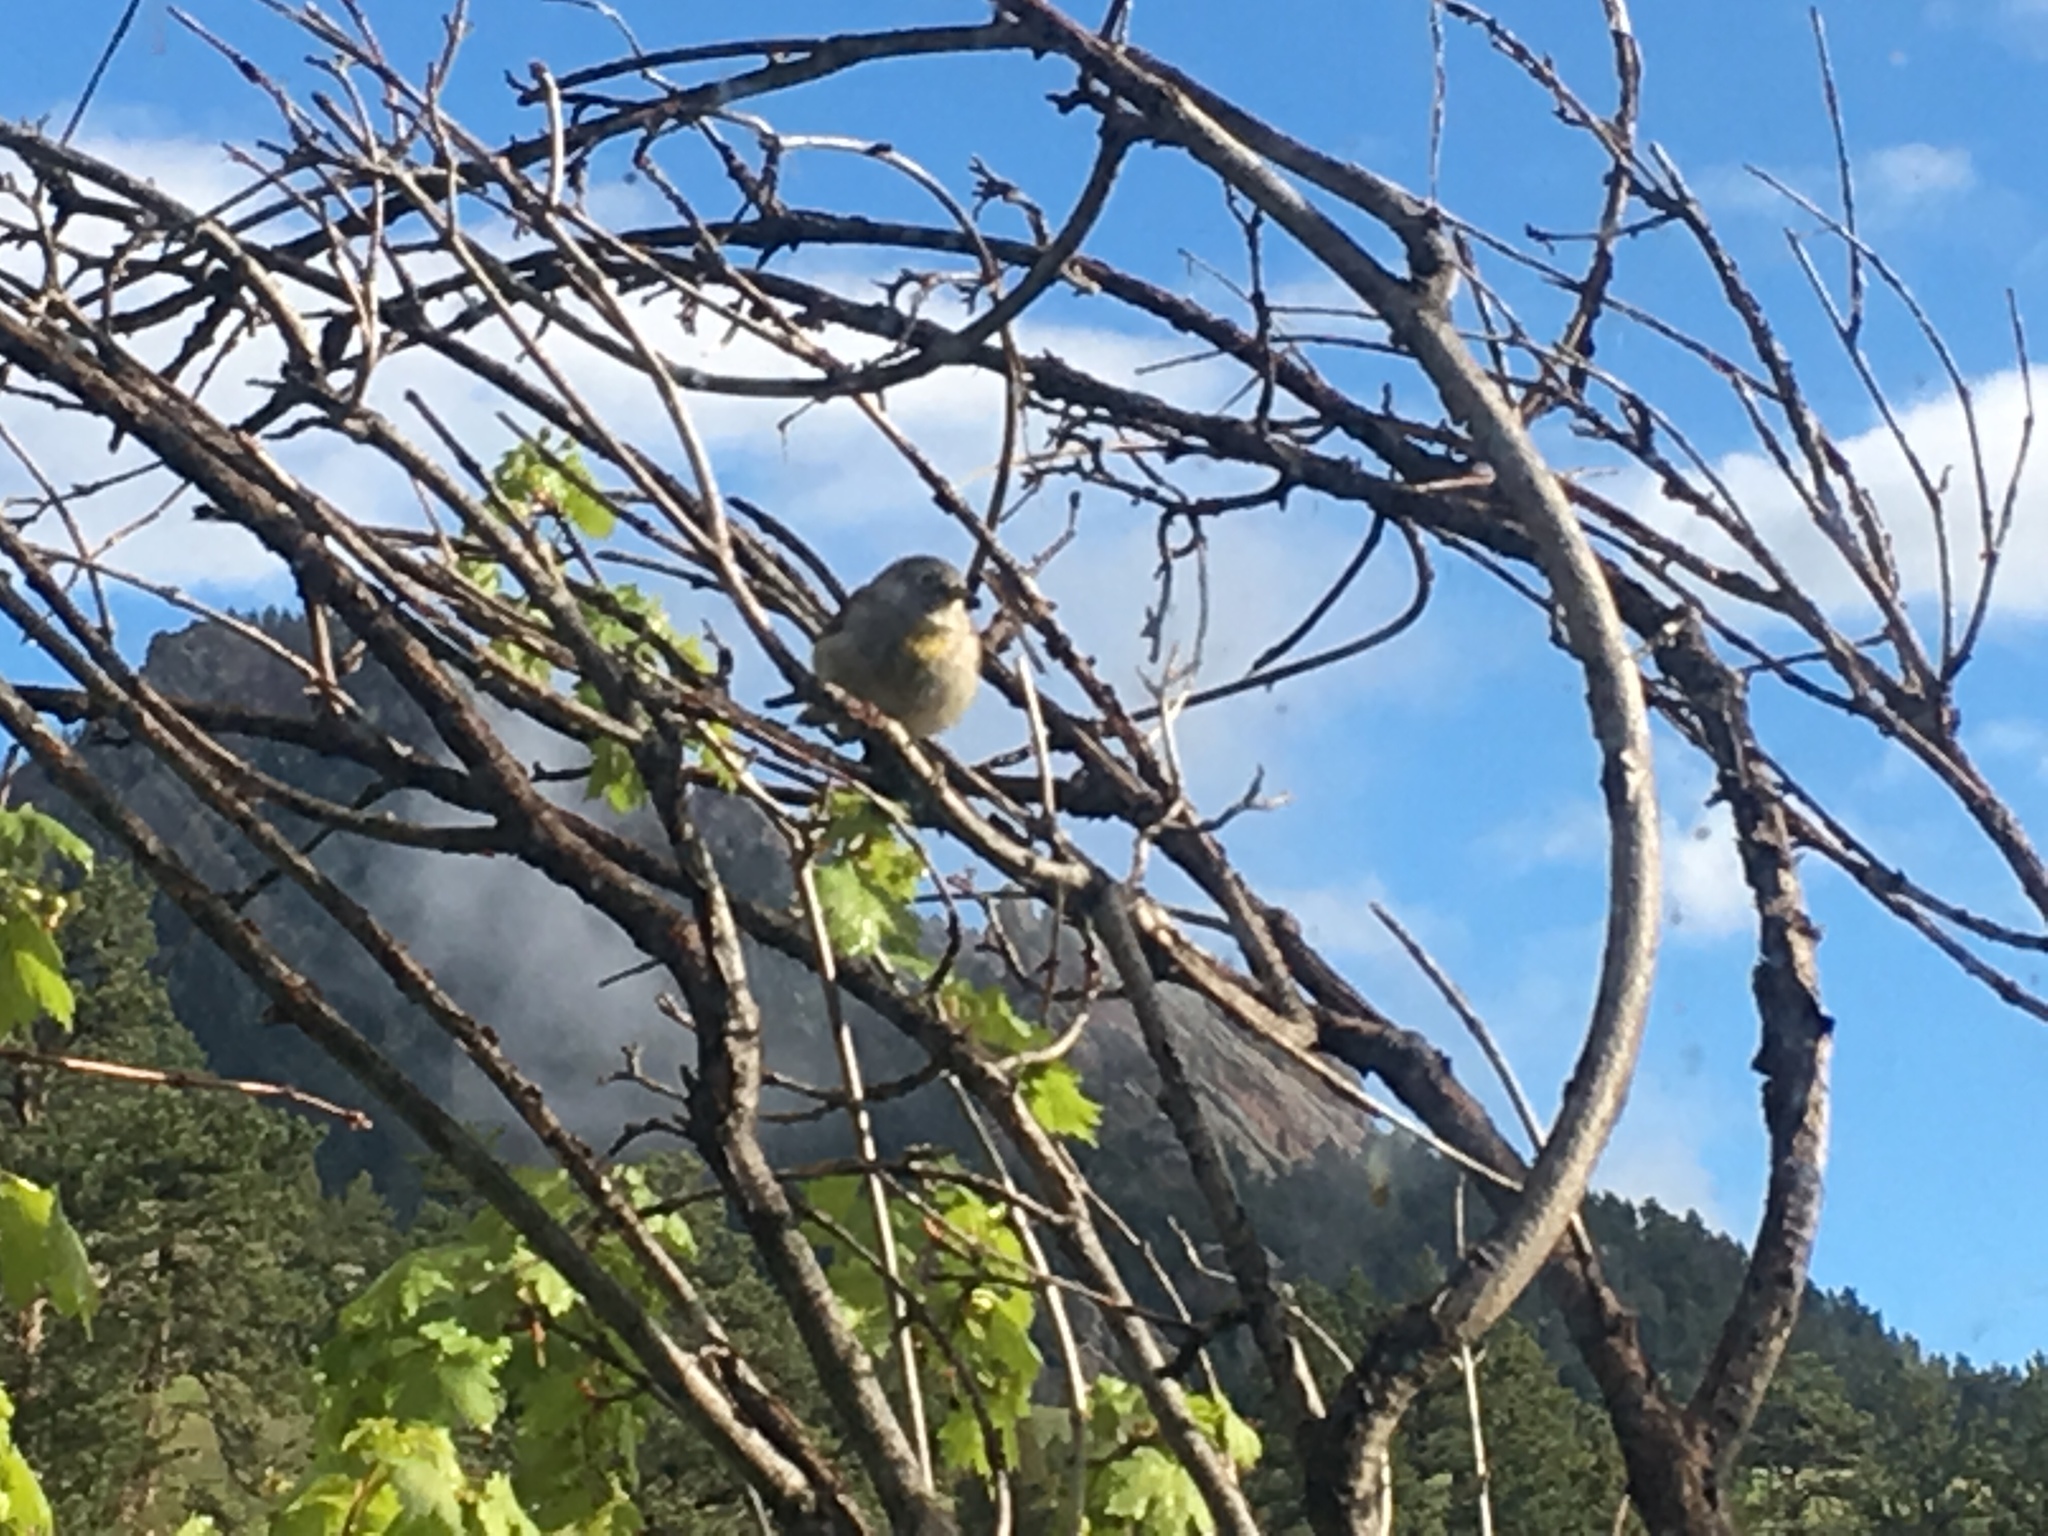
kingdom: Animalia
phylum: Chordata
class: Aves
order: Passeriformes
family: Parulidae
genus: Leiothlypis
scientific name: Leiothlypis virginiae
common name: Virginia's warbler
